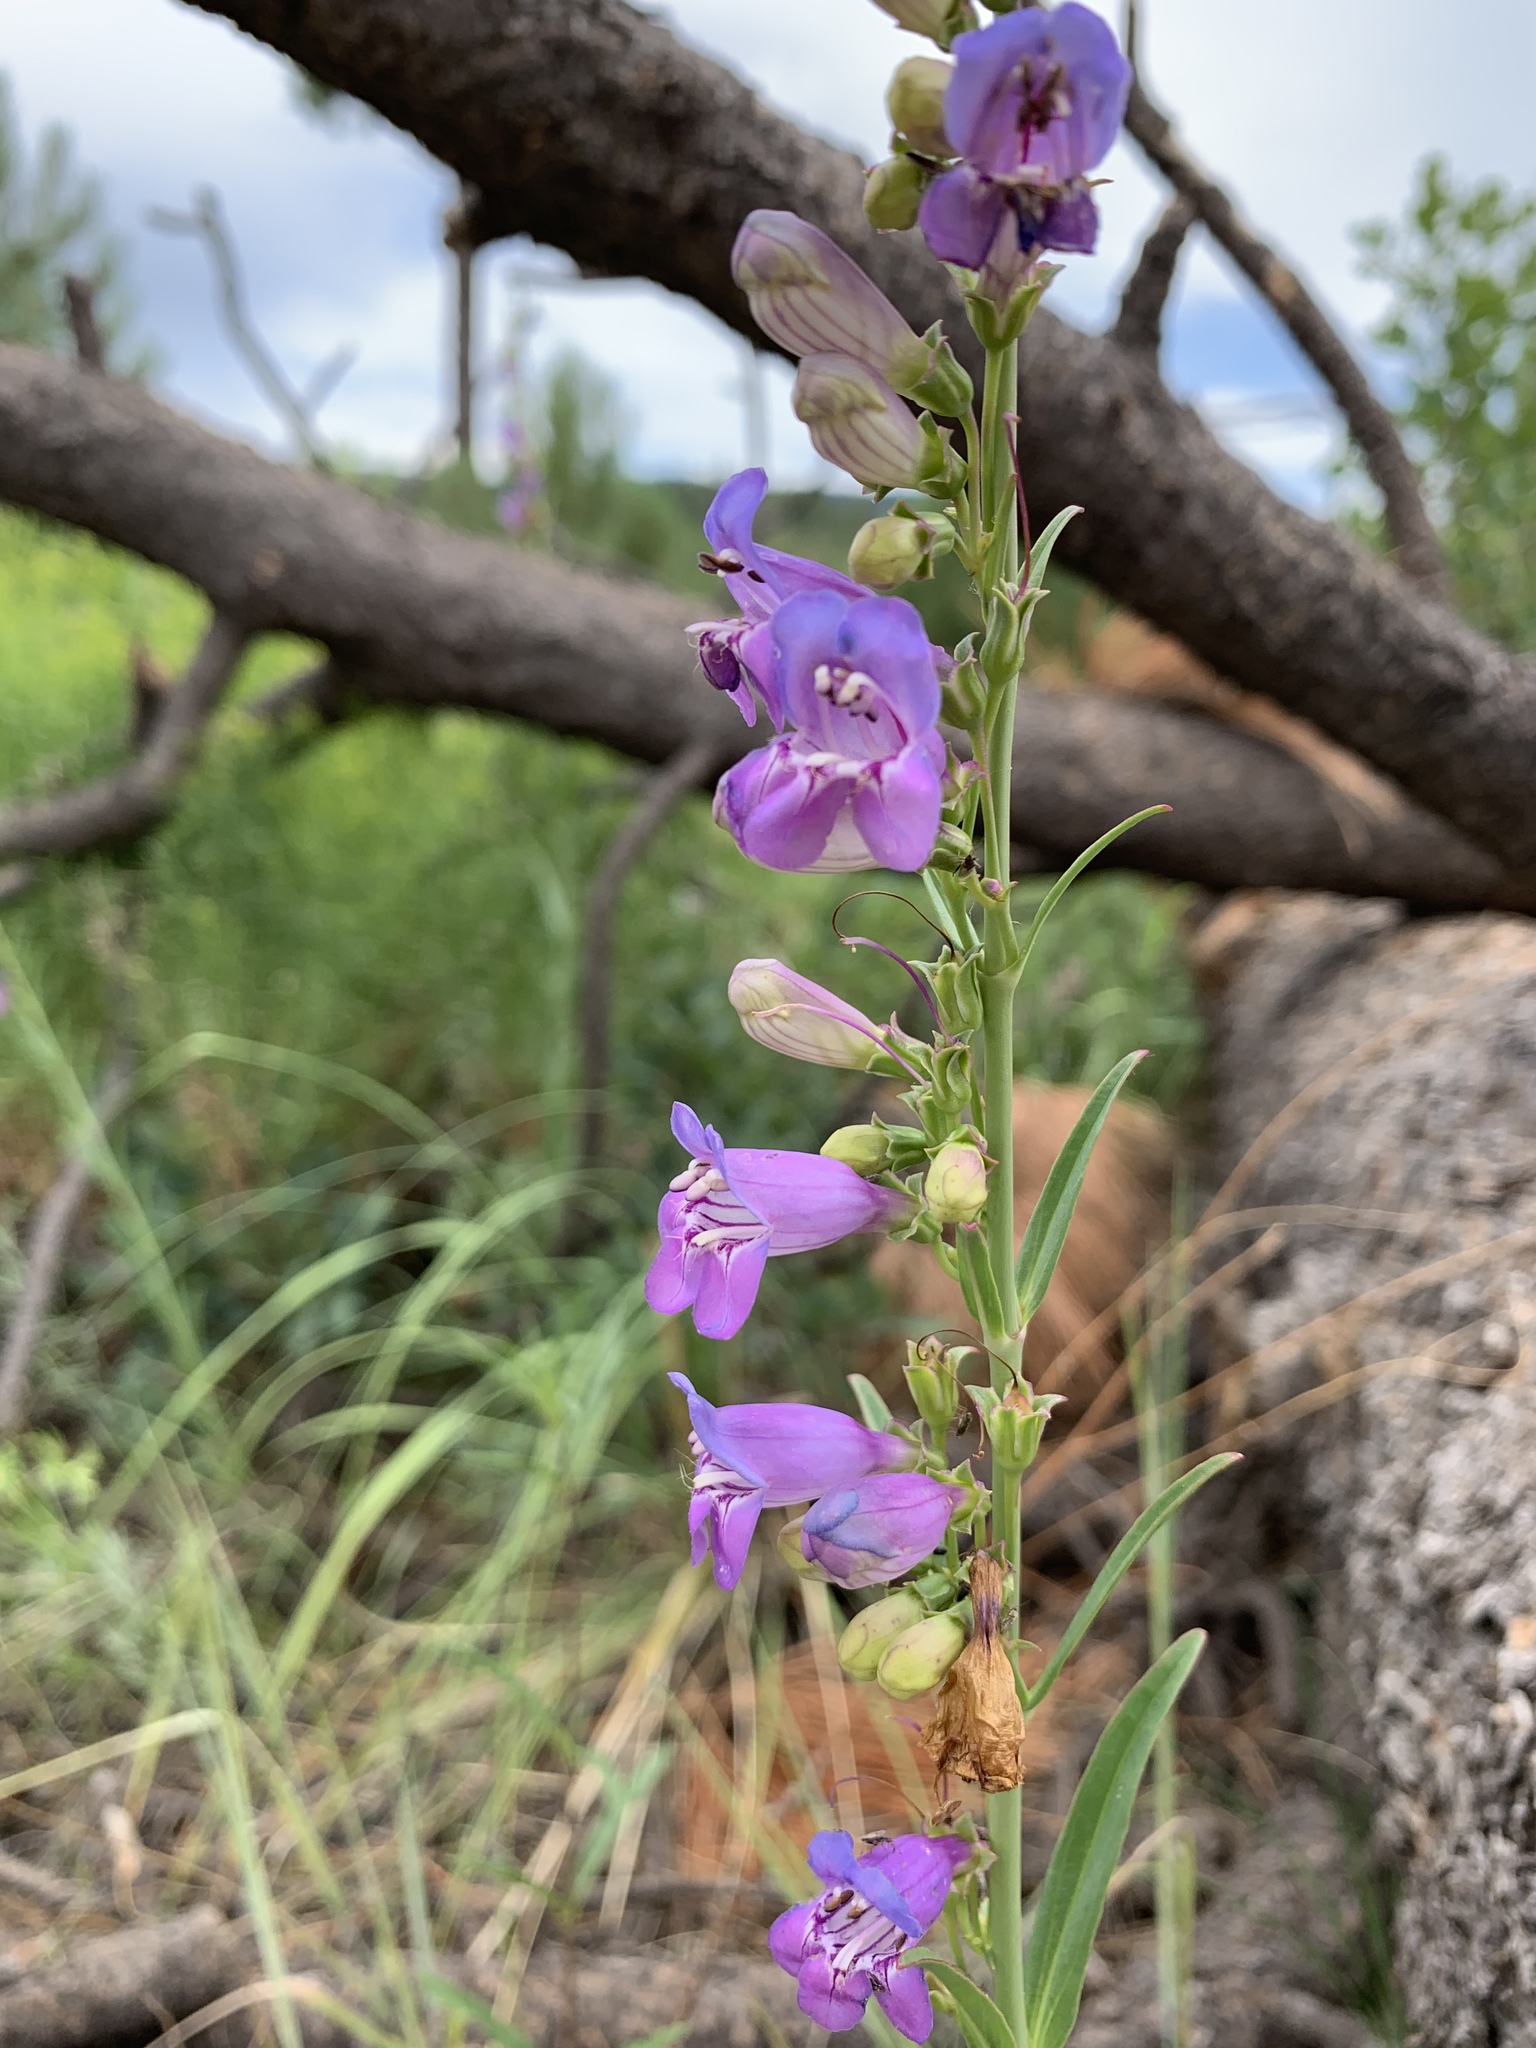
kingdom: Plantae
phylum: Tracheophyta
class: Magnoliopsida
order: Lamiales
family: Plantaginaceae
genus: Penstemon
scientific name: Penstemon neomexicanus
